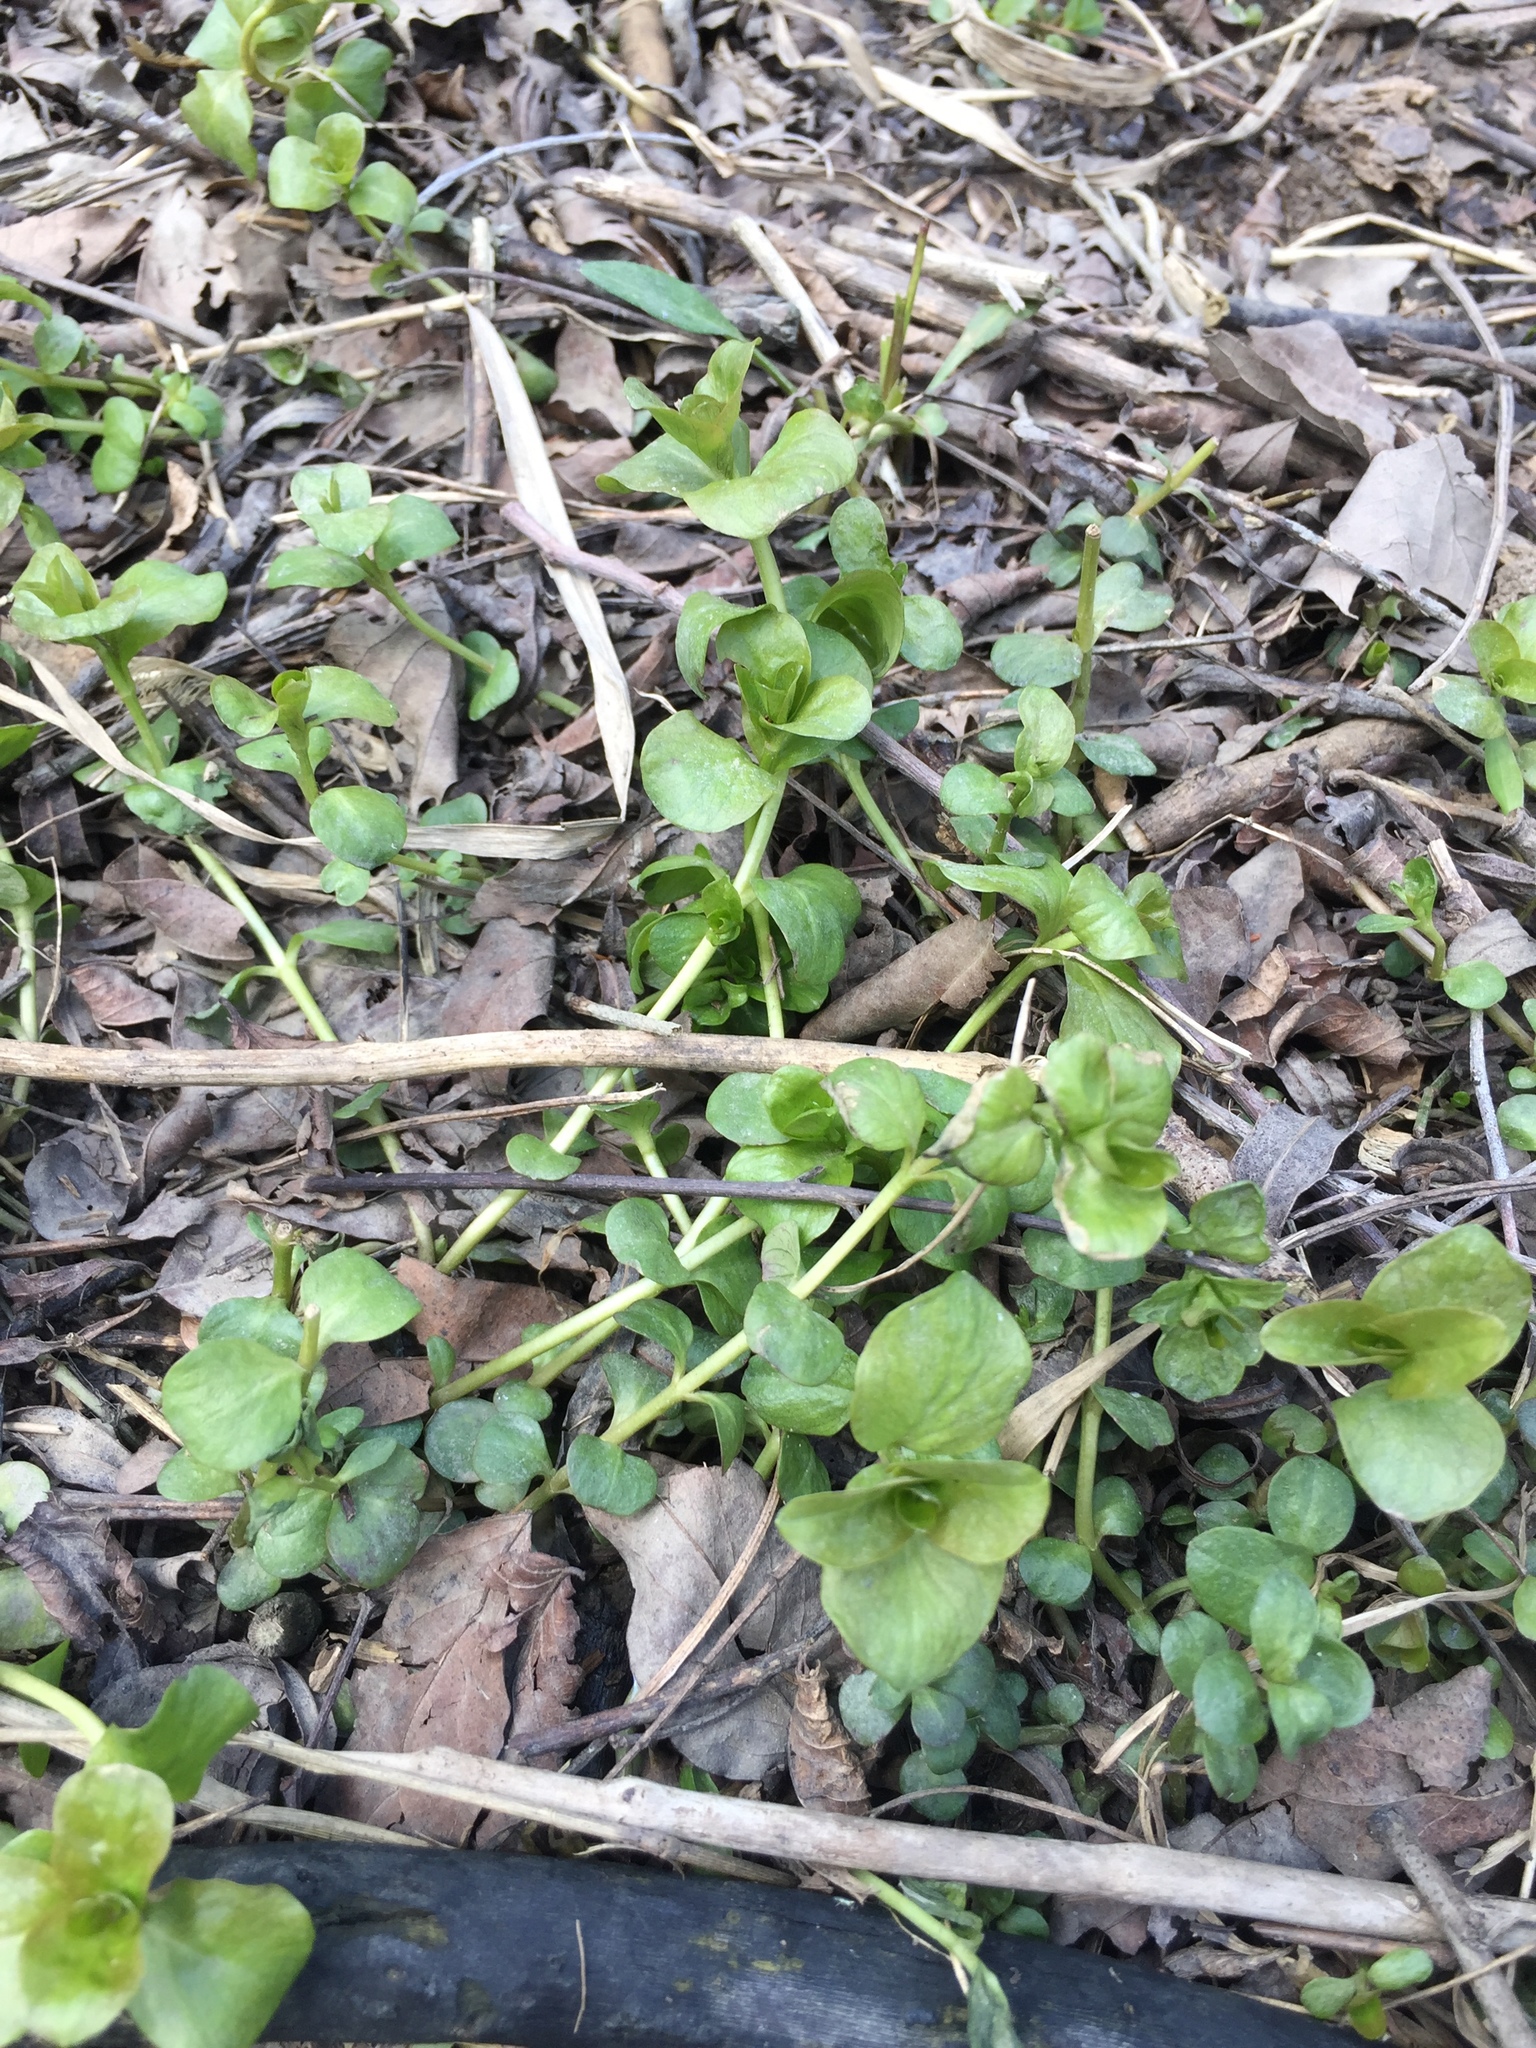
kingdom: Plantae
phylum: Tracheophyta
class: Magnoliopsida
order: Ericales
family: Primulaceae
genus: Lysimachia
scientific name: Lysimachia nummularia
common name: Moneywort
